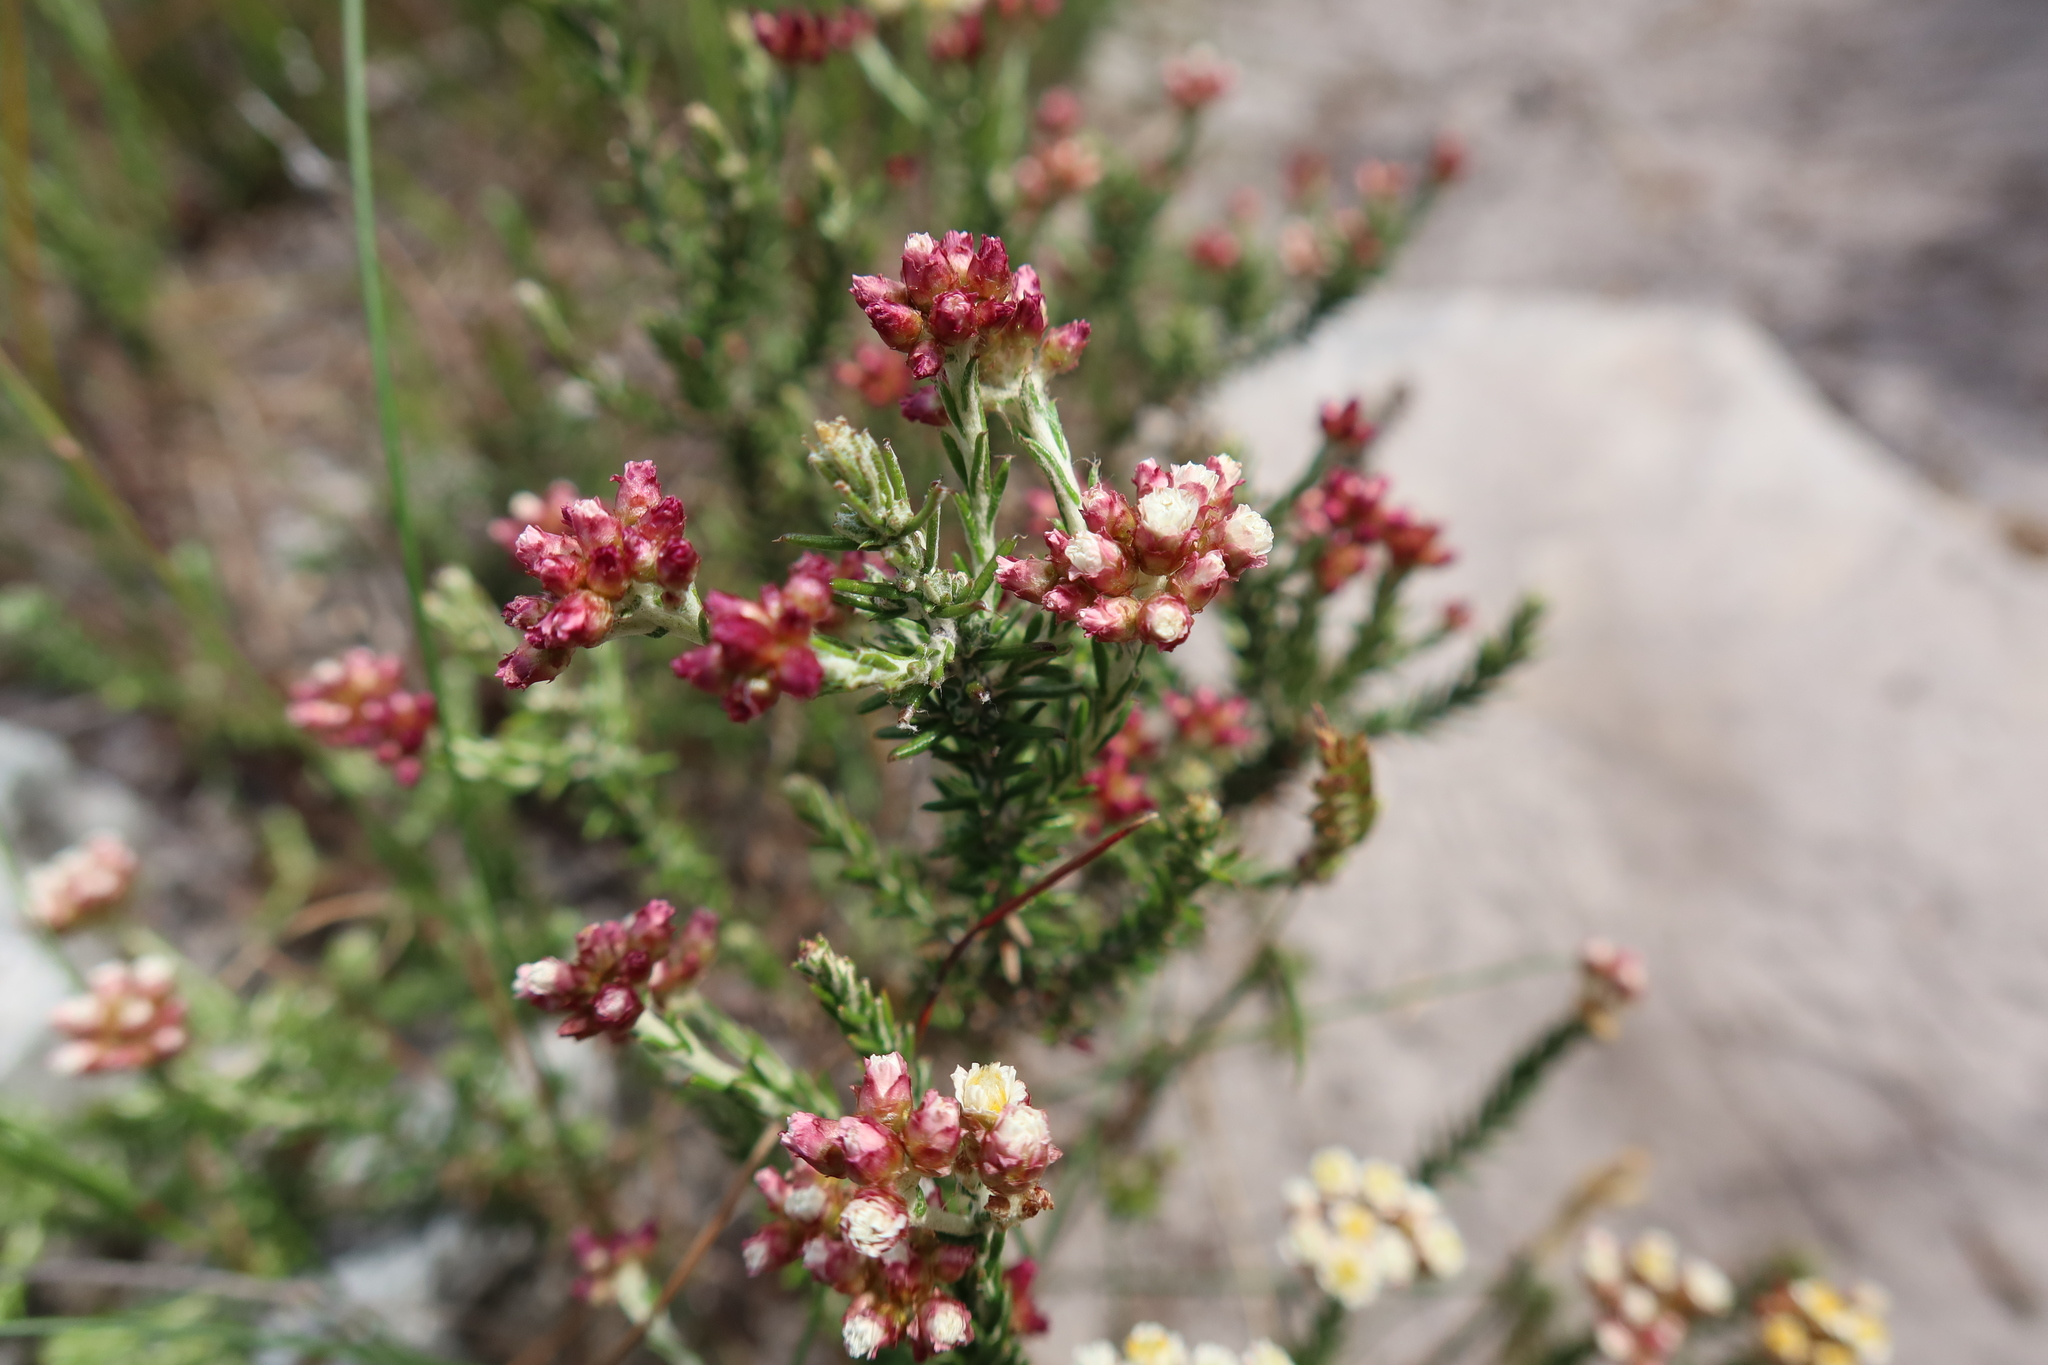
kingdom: Plantae
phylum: Tracheophyta
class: Magnoliopsida
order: Asterales
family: Asteraceae
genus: Helichrysum
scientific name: Helichrysum teretifolium
